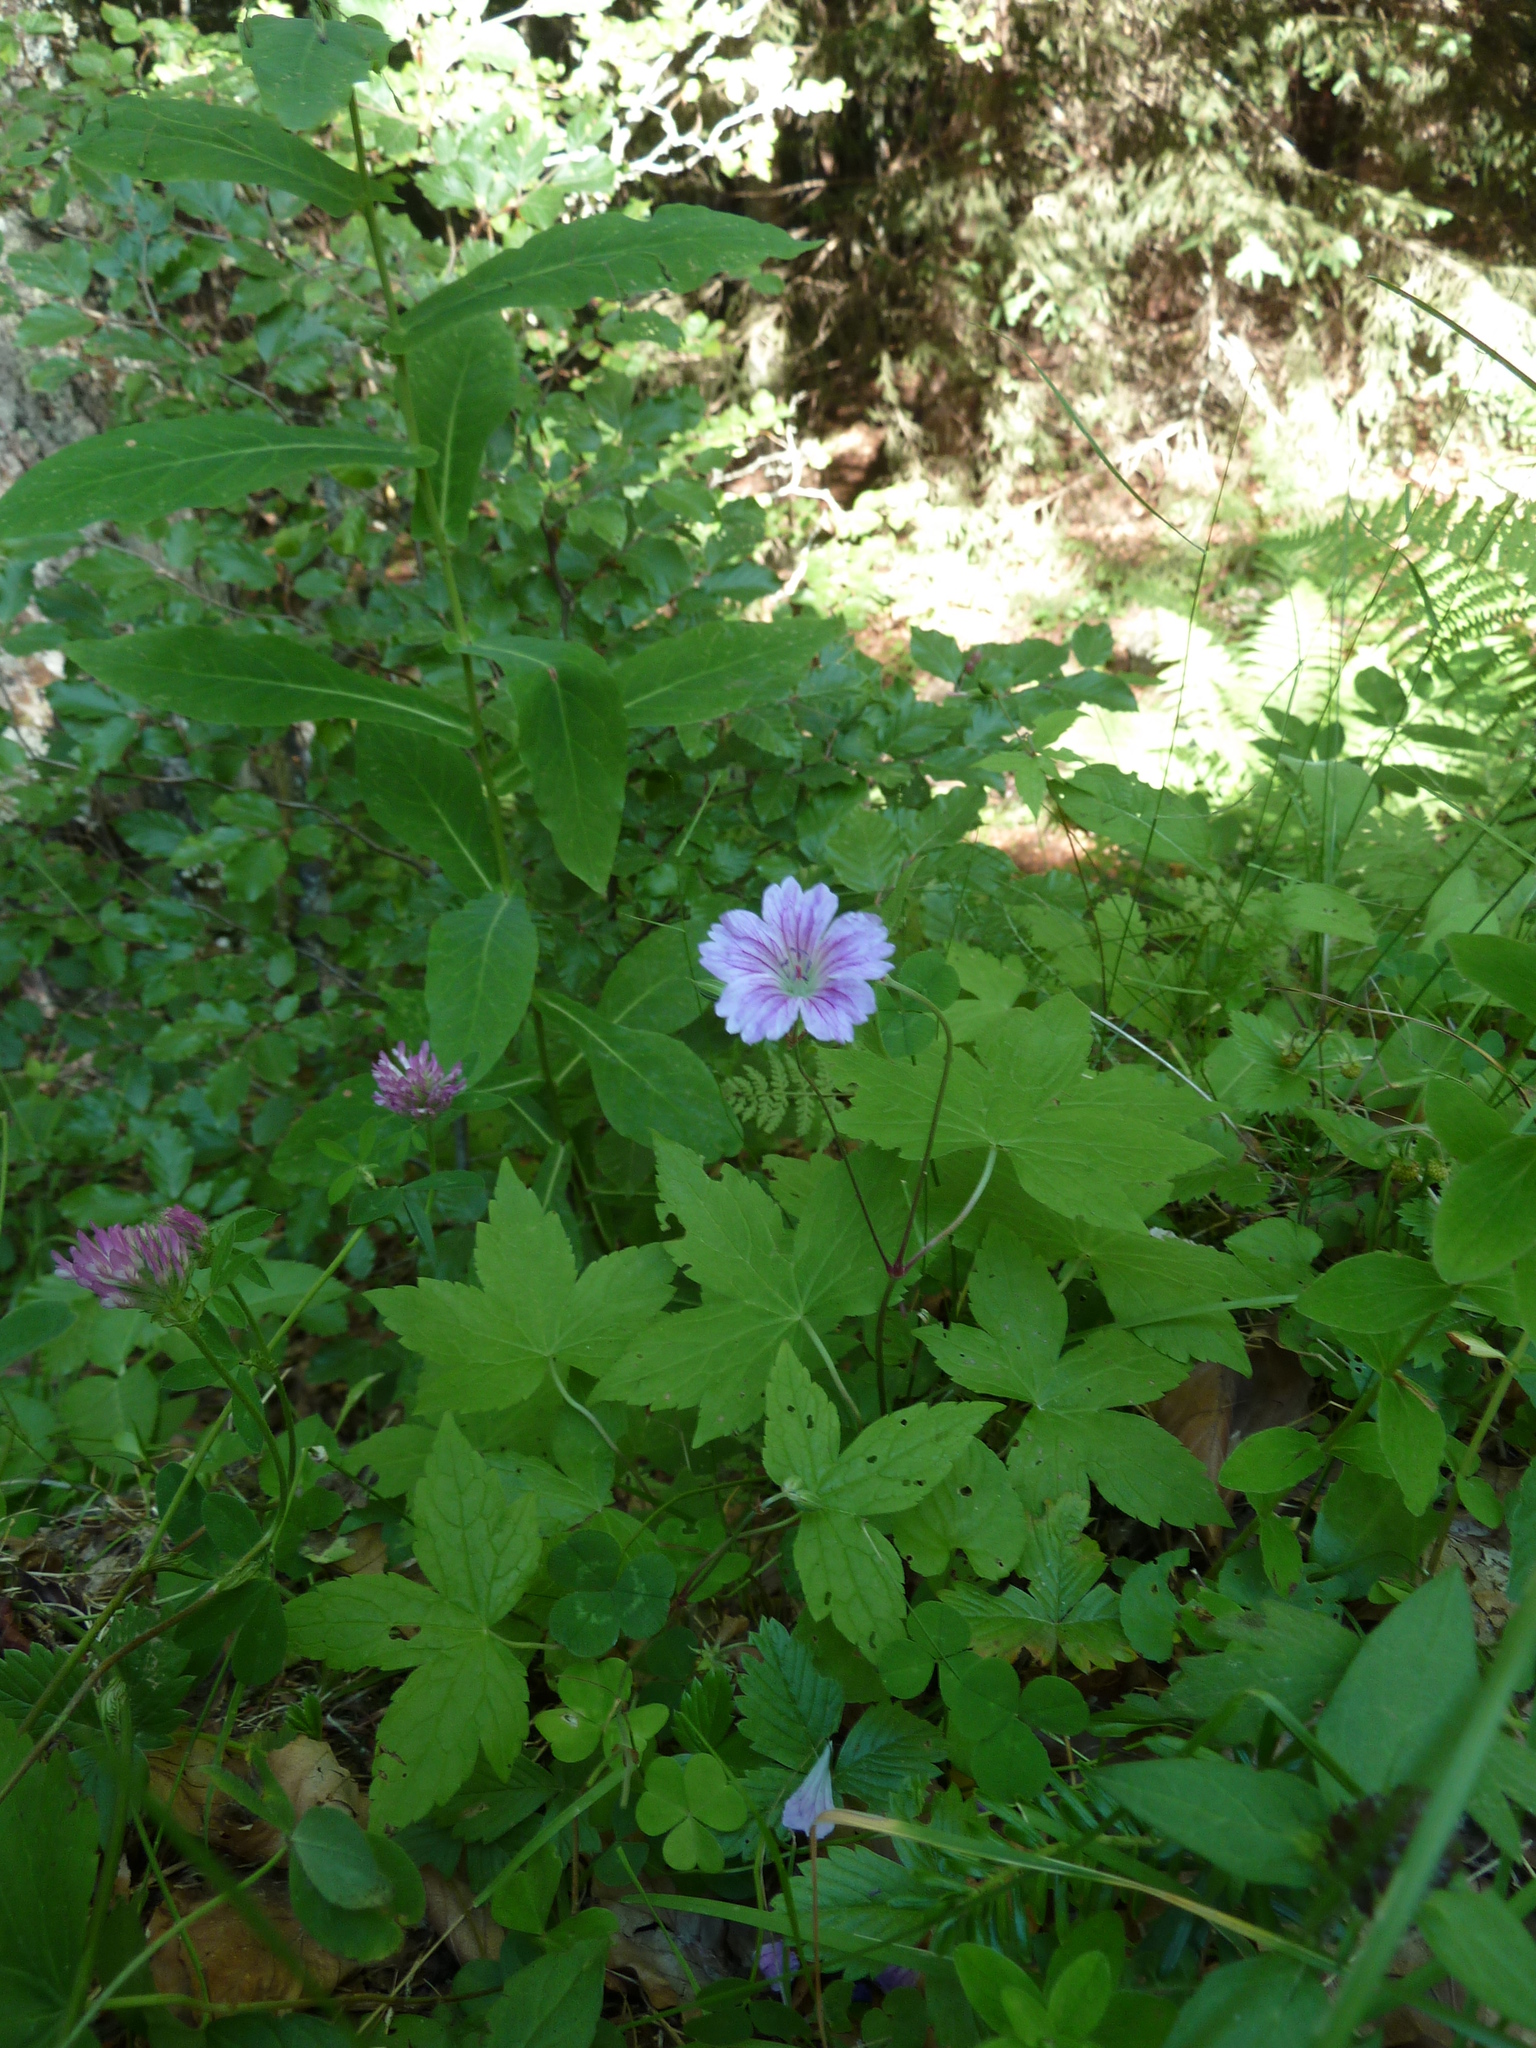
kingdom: Plantae
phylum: Tracheophyta
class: Magnoliopsida
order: Geraniales
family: Geraniaceae
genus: Geranium
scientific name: Geranium nodosum
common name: Knotted crane's-bill
